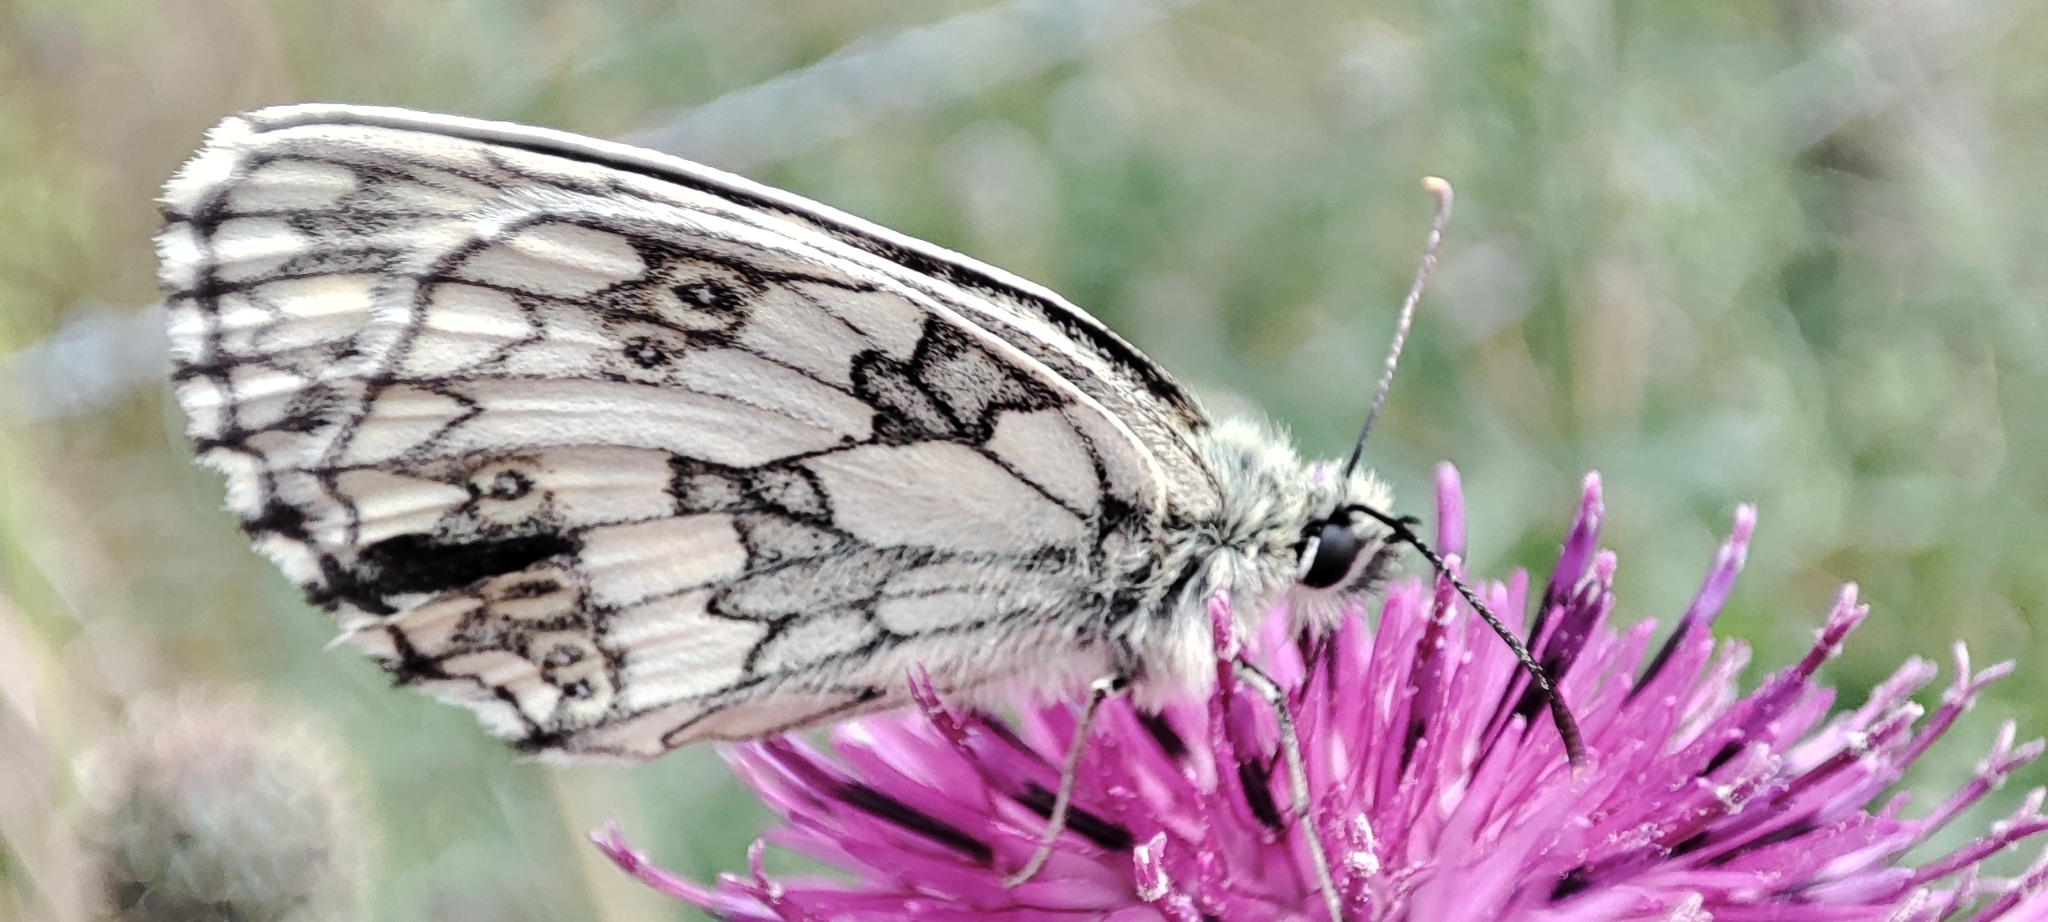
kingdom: Animalia
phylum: Arthropoda
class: Insecta
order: Lepidoptera
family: Nymphalidae
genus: Melanargia
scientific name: Melanargia galathea
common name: Marbled white
